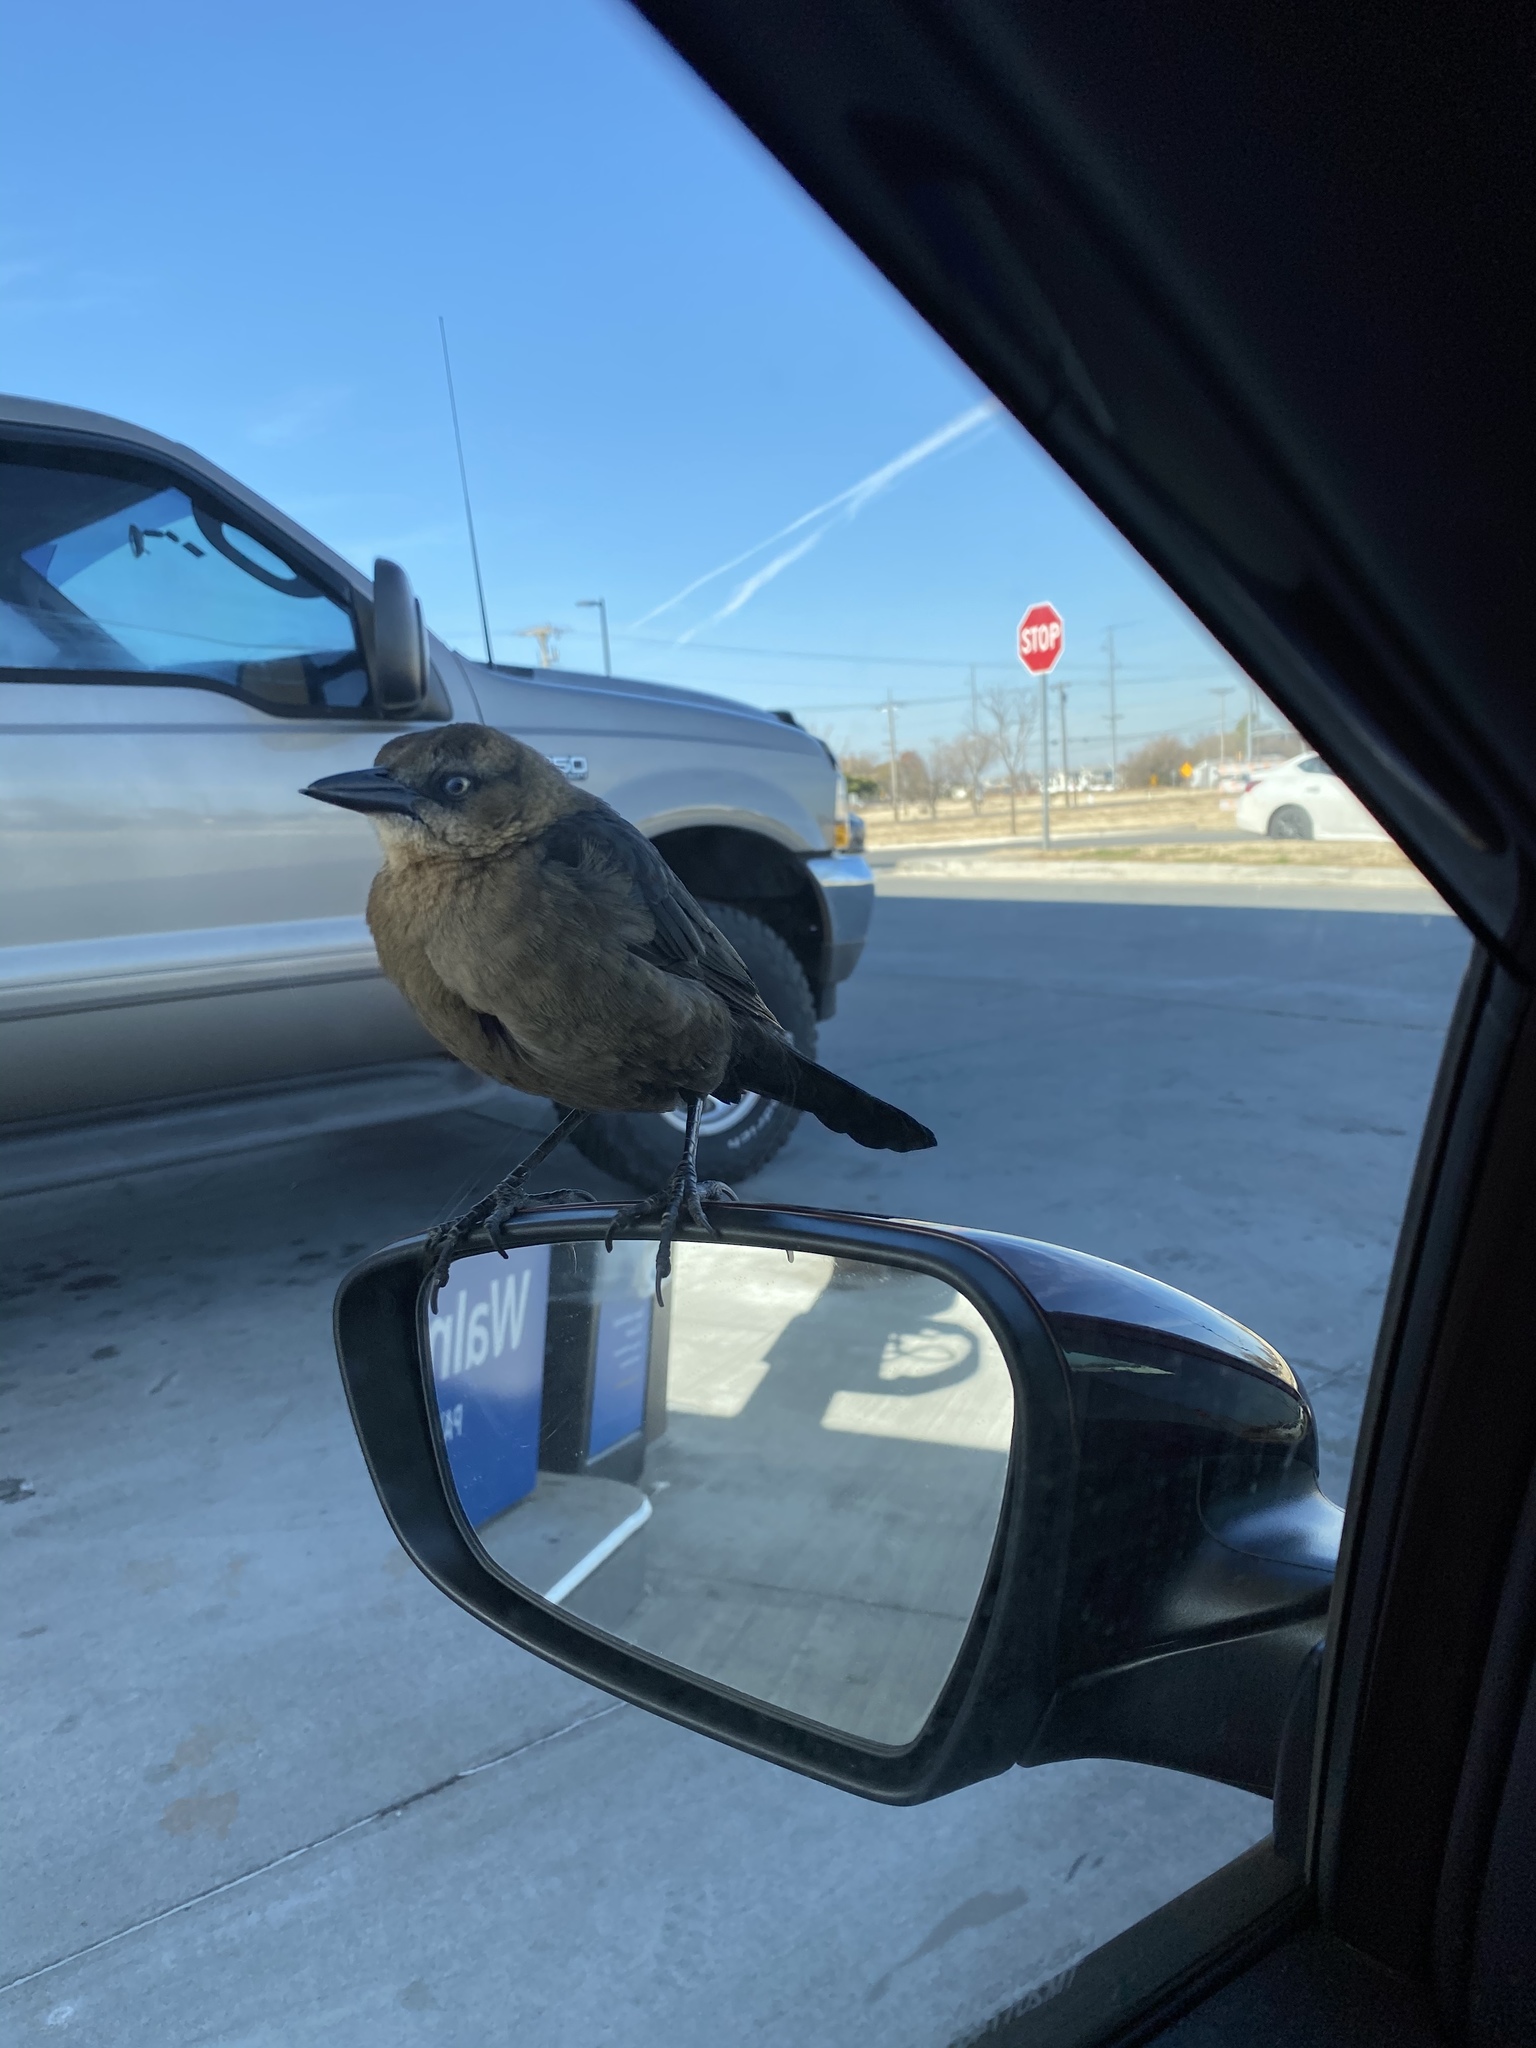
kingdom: Animalia
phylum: Chordata
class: Aves
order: Passeriformes
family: Icteridae
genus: Quiscalus
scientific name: Quiscalus mexicanus
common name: Great-tailed grackle
